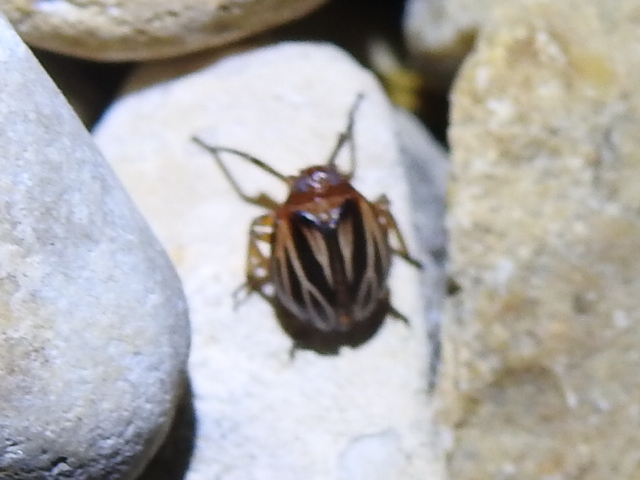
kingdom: Animalia
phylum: Arthropoda
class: Insecta
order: Hemiptera
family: Achilidae
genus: Isodaemon
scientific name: Isodaemon orontes
